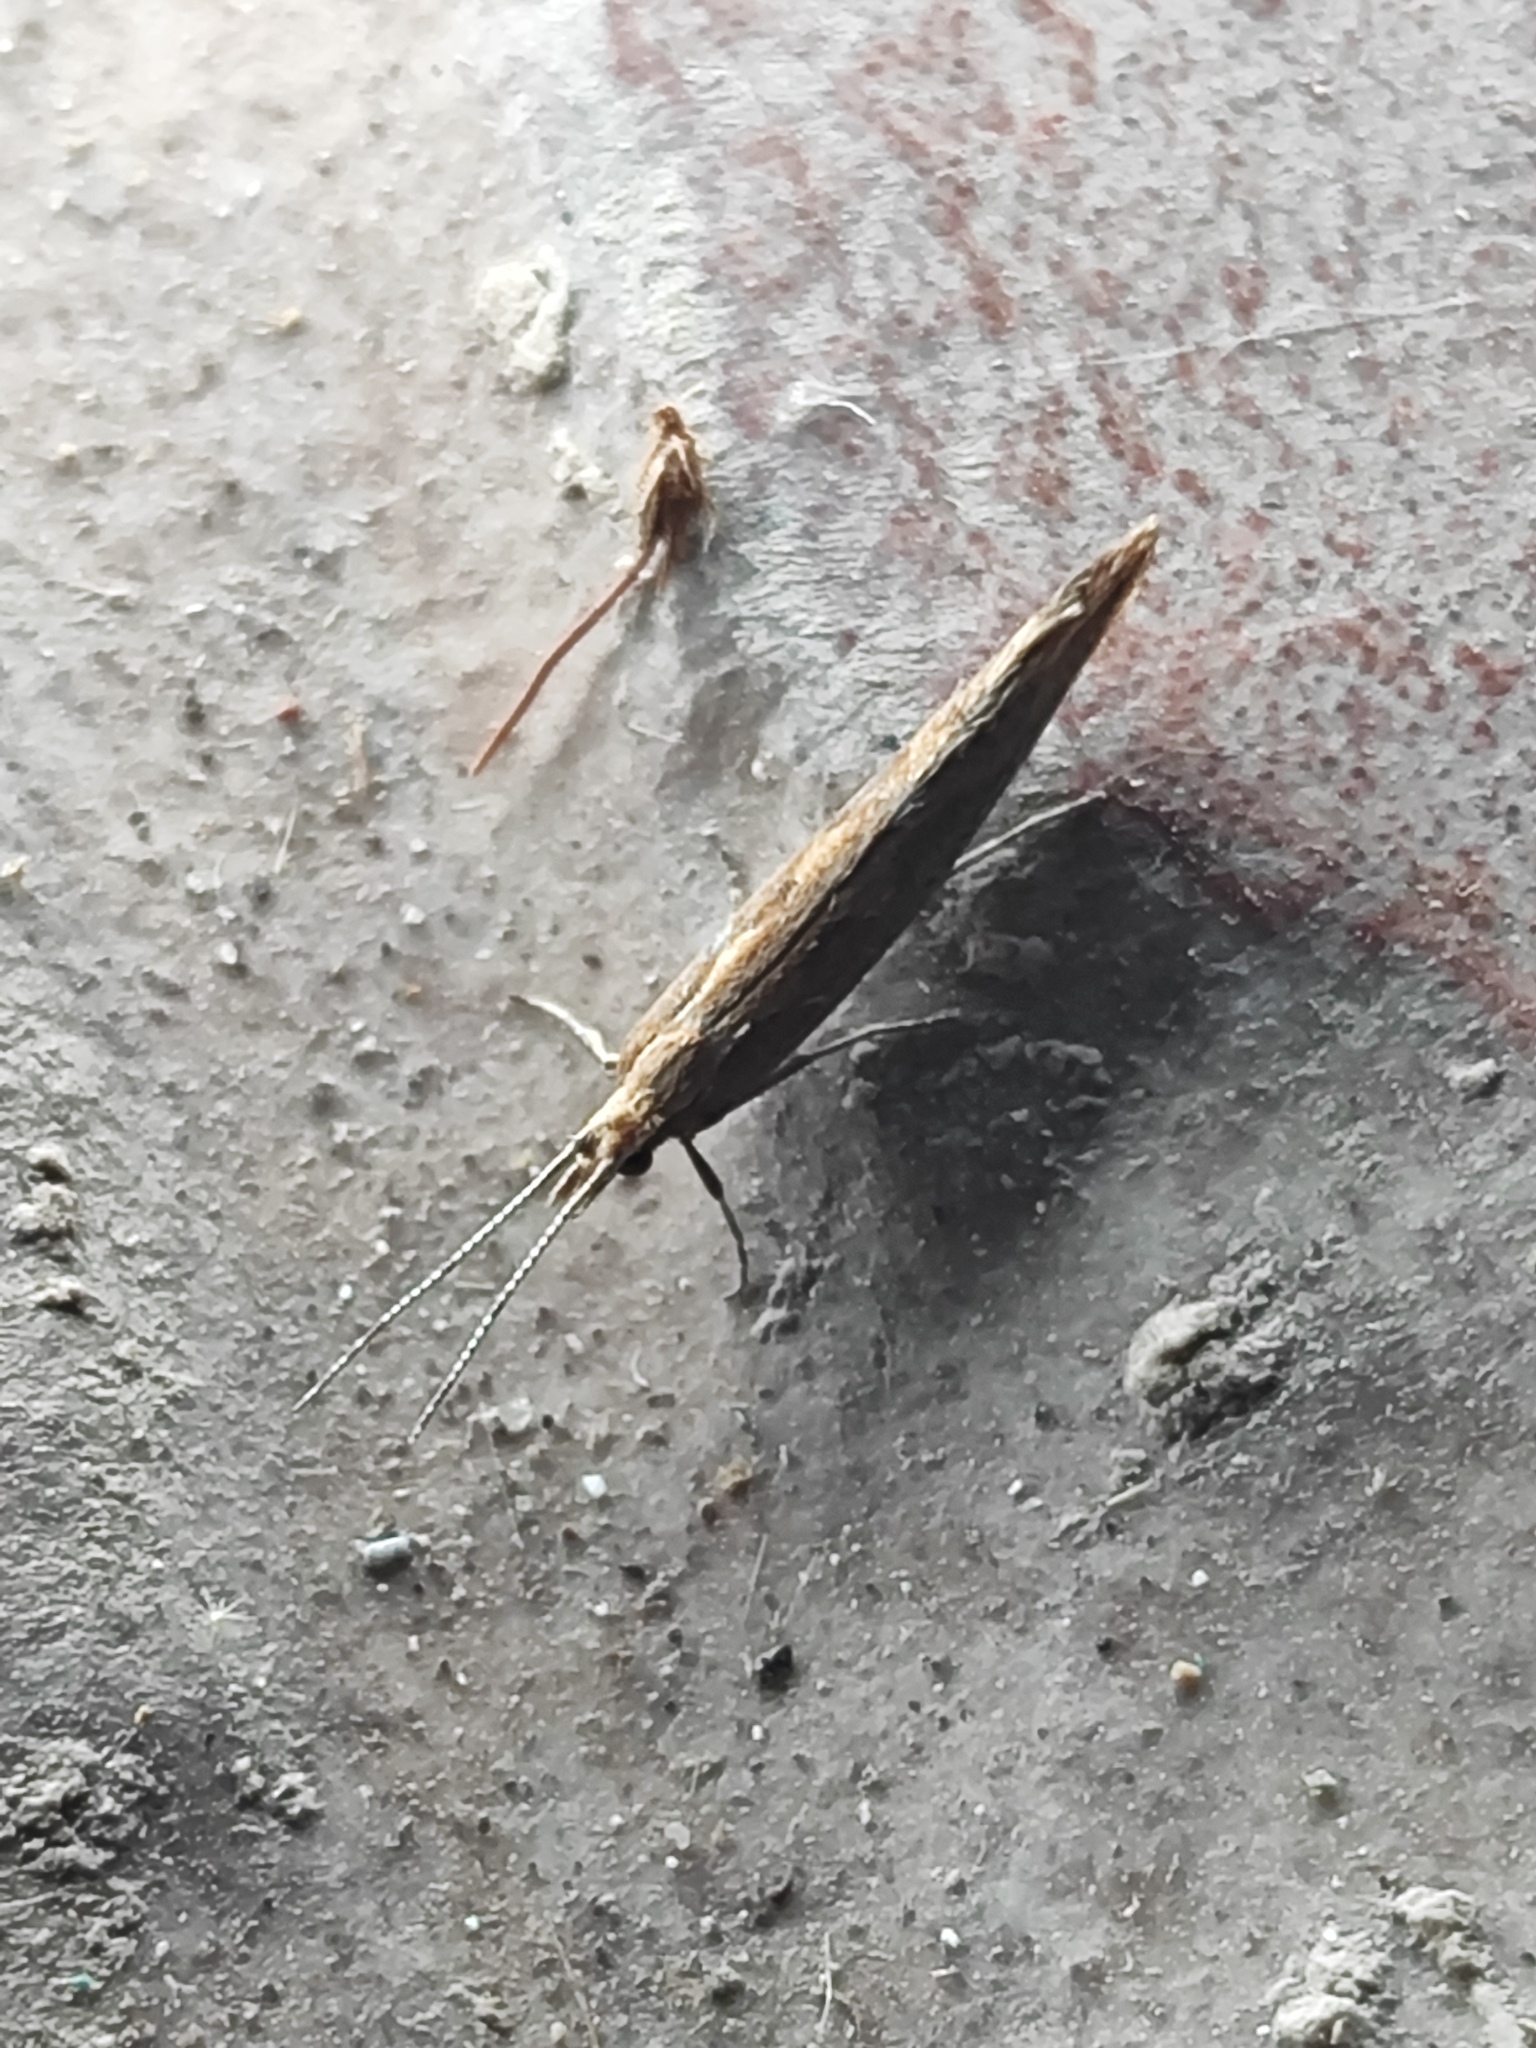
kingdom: Animalia
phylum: Arthropoda
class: Insecta
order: Lepidoptera
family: Plutellidae
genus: Plutella
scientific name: Plutella xylostella
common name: Diamond-back moth
